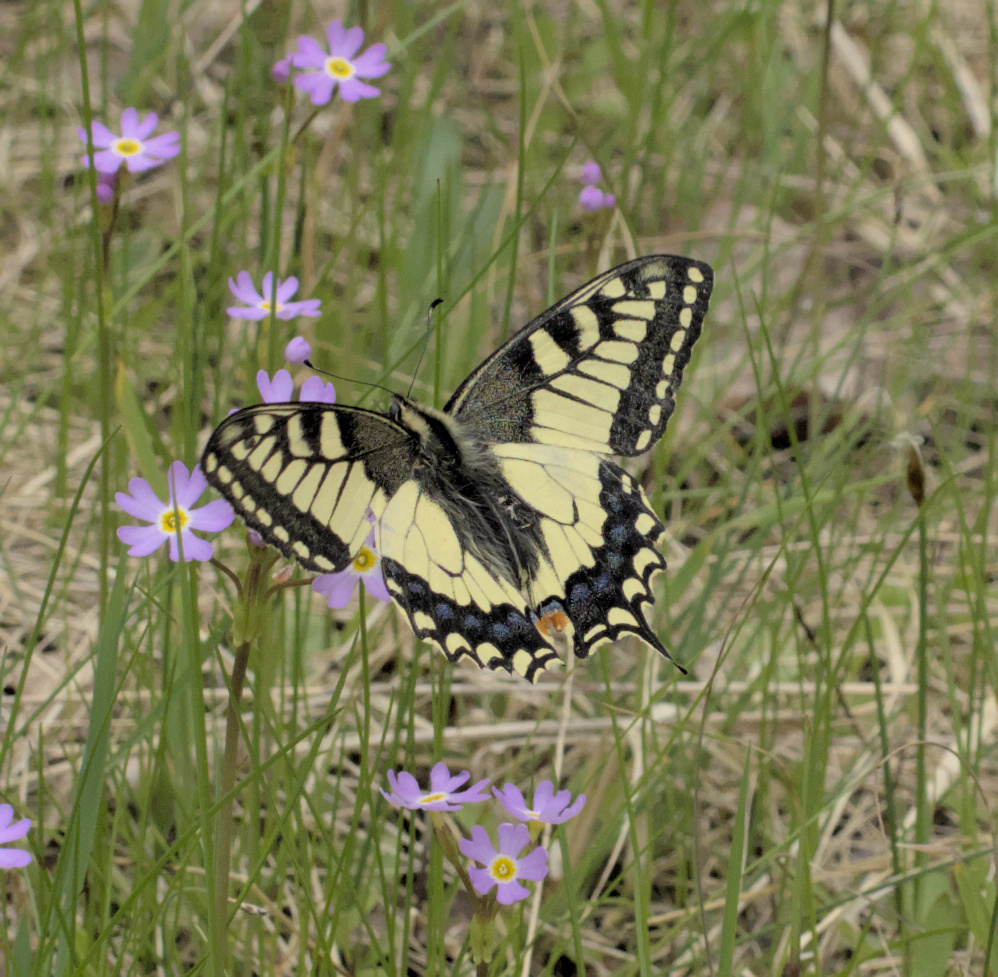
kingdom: Animalia
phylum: Arthropoda
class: Insecta
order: Lepidoptera
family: Papilionidae
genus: Papilio
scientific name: Papilio machaon
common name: Swallowtail
